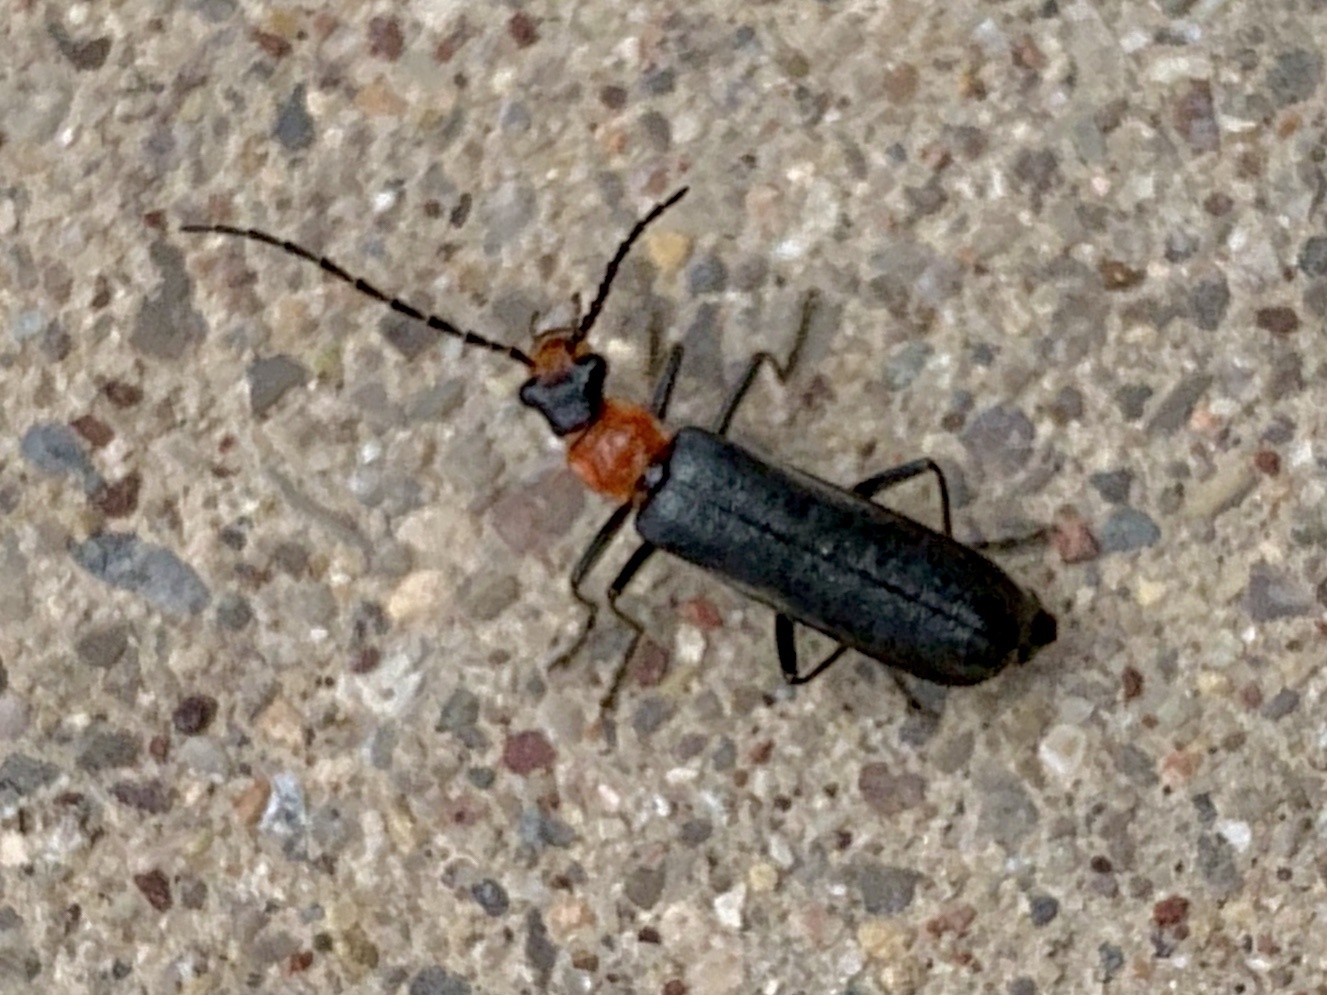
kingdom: Animalia
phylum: Arthropoda
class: Insecta
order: Coleoptera
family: Cantharidae
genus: Podabrus
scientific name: Podabrus muliebris
